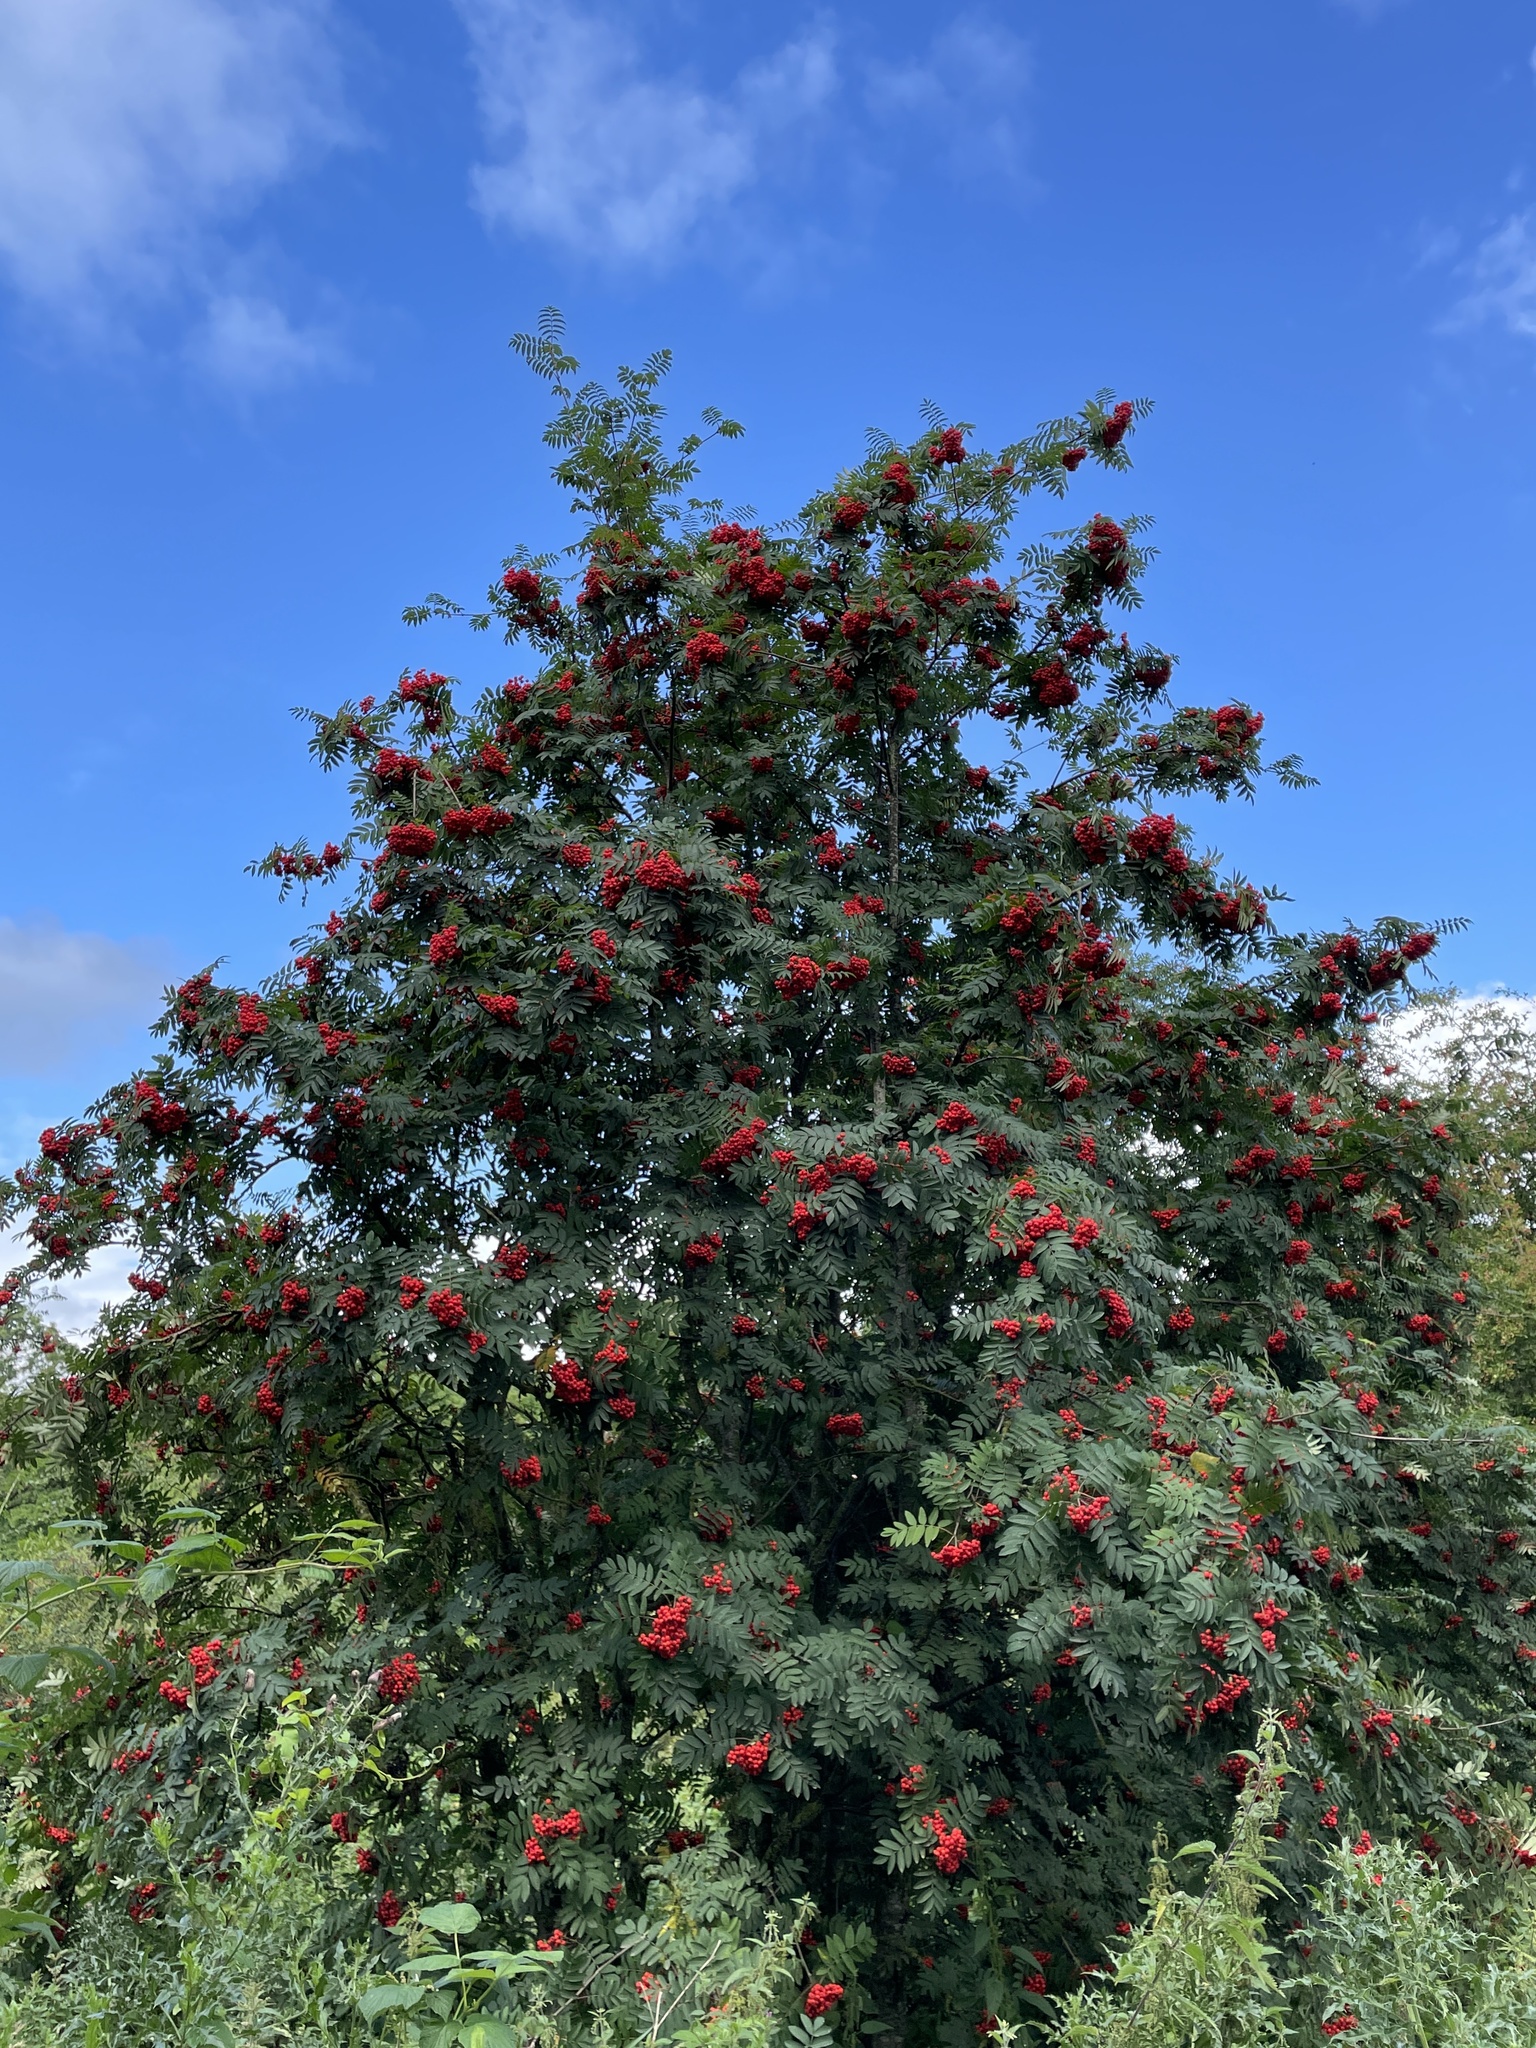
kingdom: Plantae
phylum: Tracheophyta
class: Magnoliopsida
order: Rosales
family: Rosaceae
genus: Sorbus
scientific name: Sorbus aucuparia
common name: Rowan
